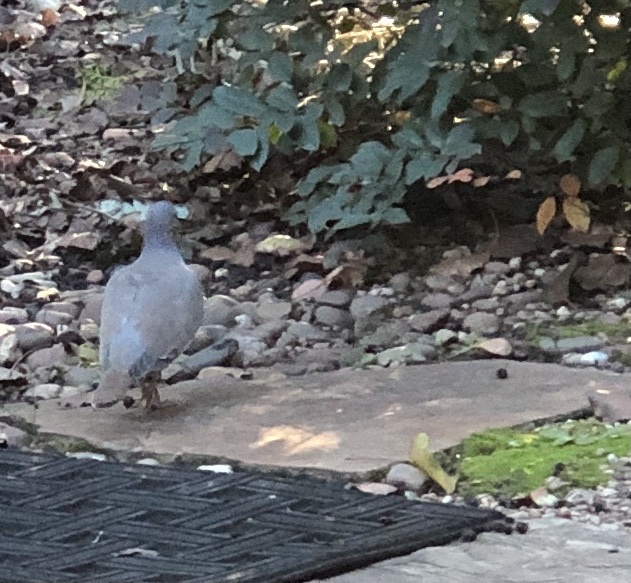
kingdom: Animalia
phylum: Chordata
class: Aves
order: Columbiformes
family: Columbidae
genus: Zenaida
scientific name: Zenaida asiatica
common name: White-winged dove
